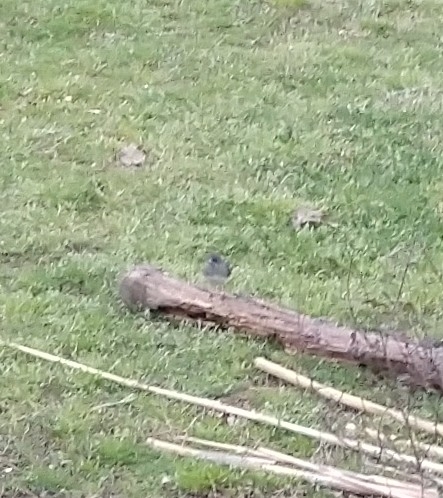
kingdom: Animalia
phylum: Chordata
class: Aves
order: Passeriformes
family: Passerellidae
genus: Junco
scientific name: Junco hyemalis
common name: Dark-eyed junco
